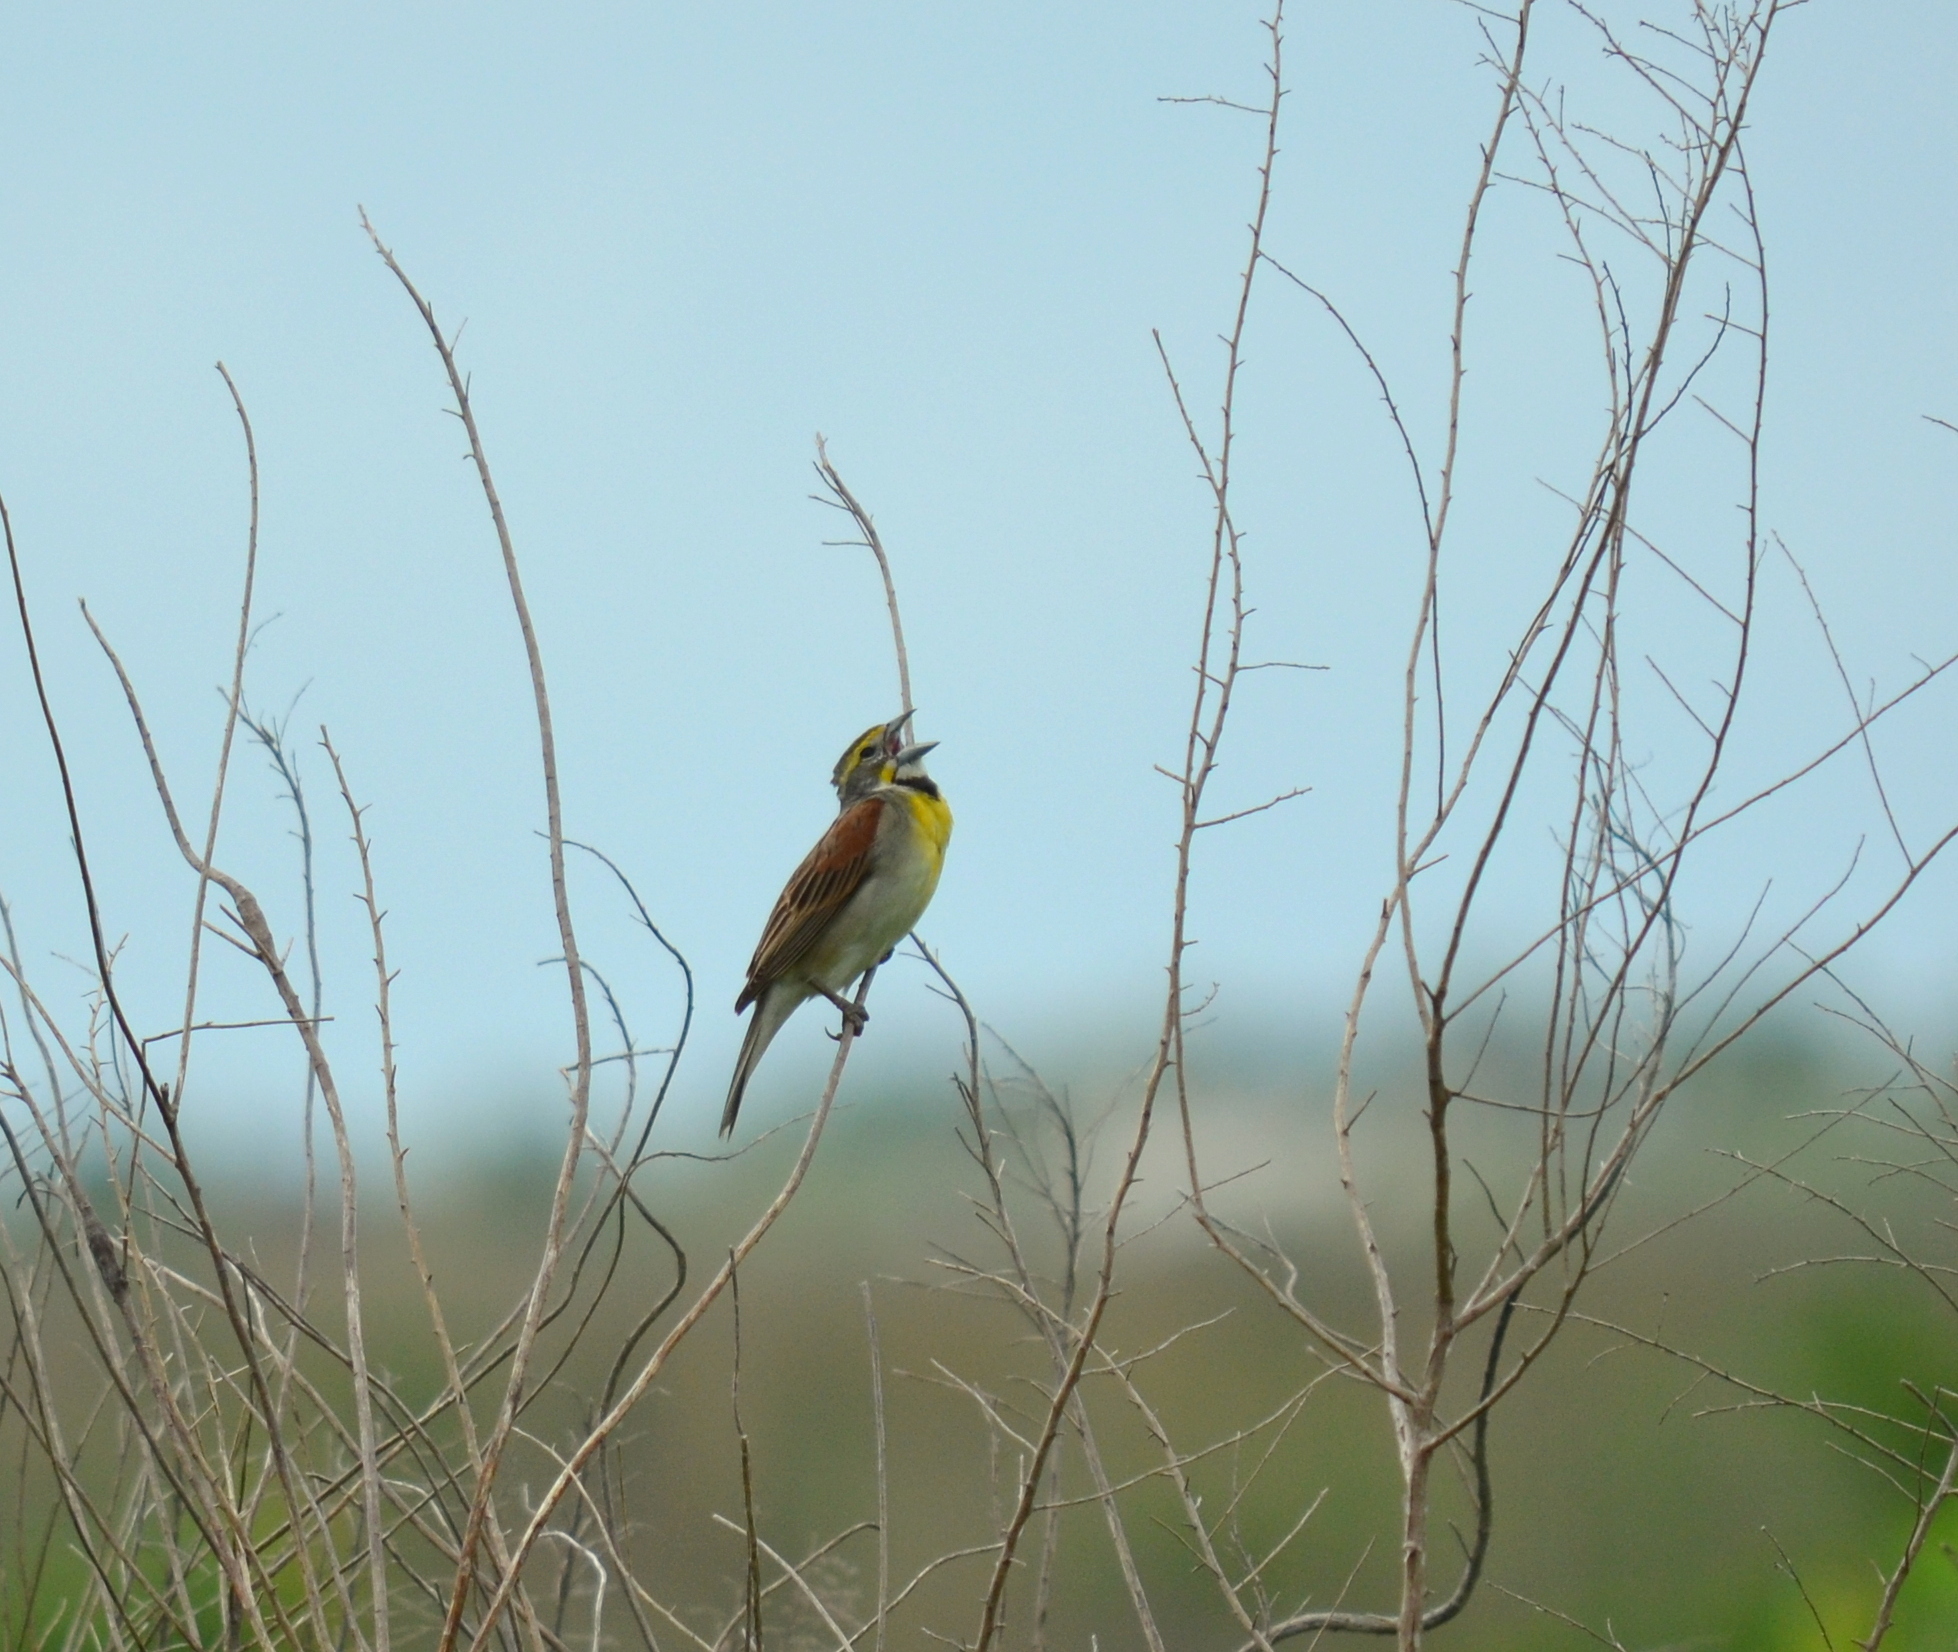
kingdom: Animalia
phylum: Chordata
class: Aves
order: Passeriformes
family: Cardinalidae
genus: Spiza
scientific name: Spiza americana
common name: Dickcissel
